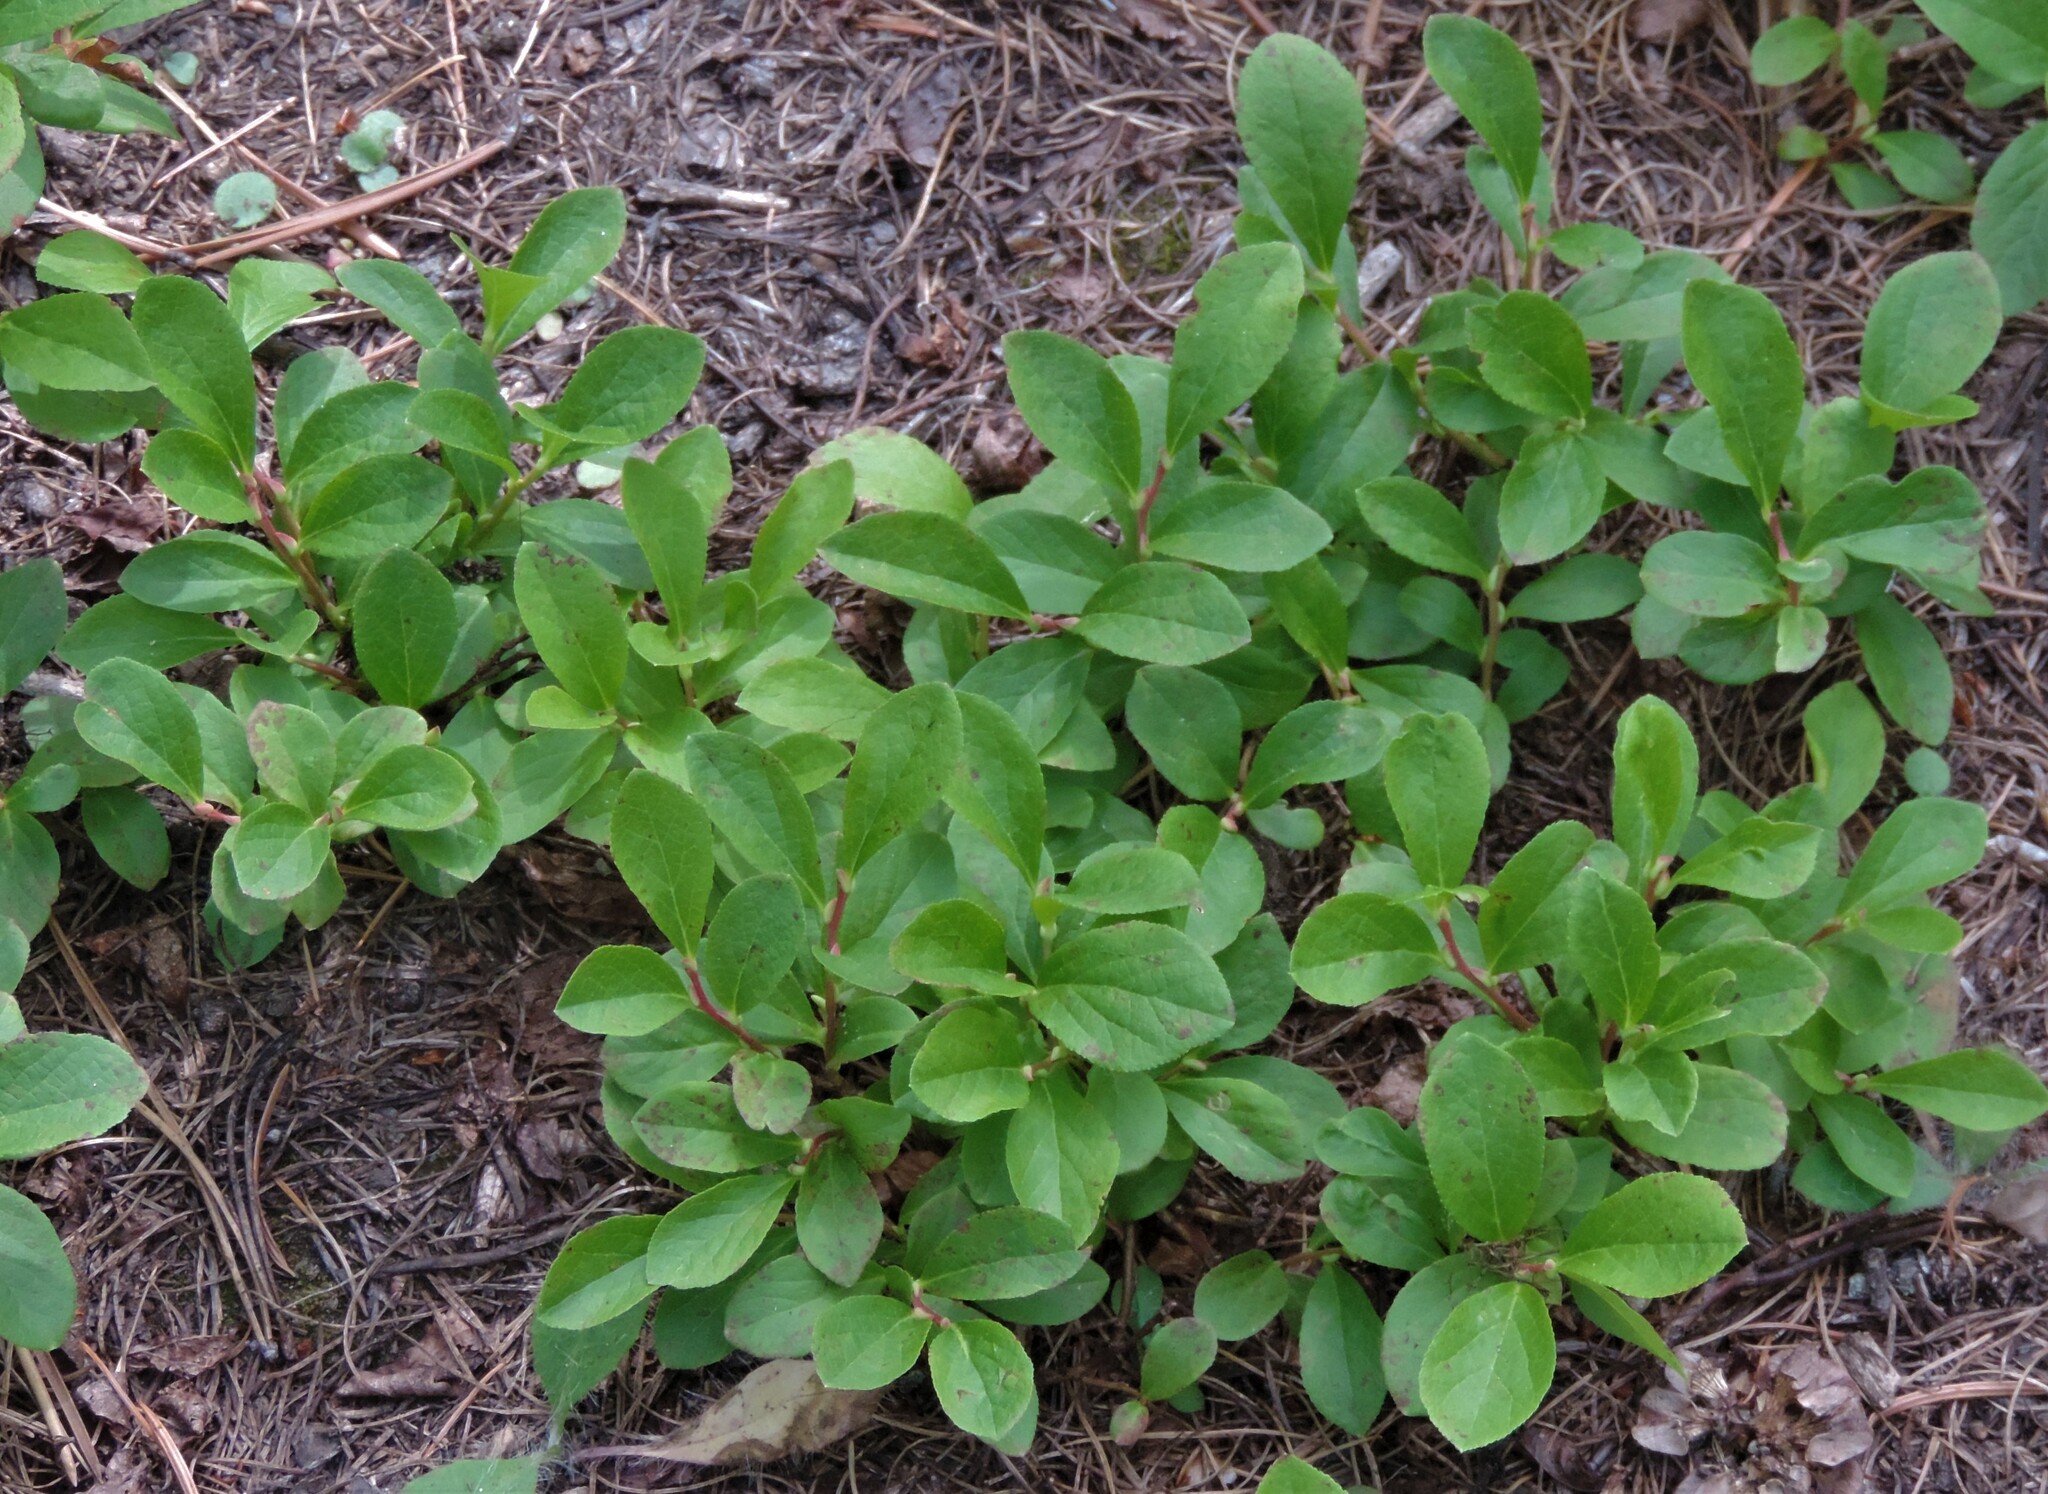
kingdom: Plantae
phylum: Tracheophyta
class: Magnoliopsida
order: Ericales
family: Ericaceae
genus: Vaccinium
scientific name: Vaccinium cespitosum
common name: Dwarf bilberry
